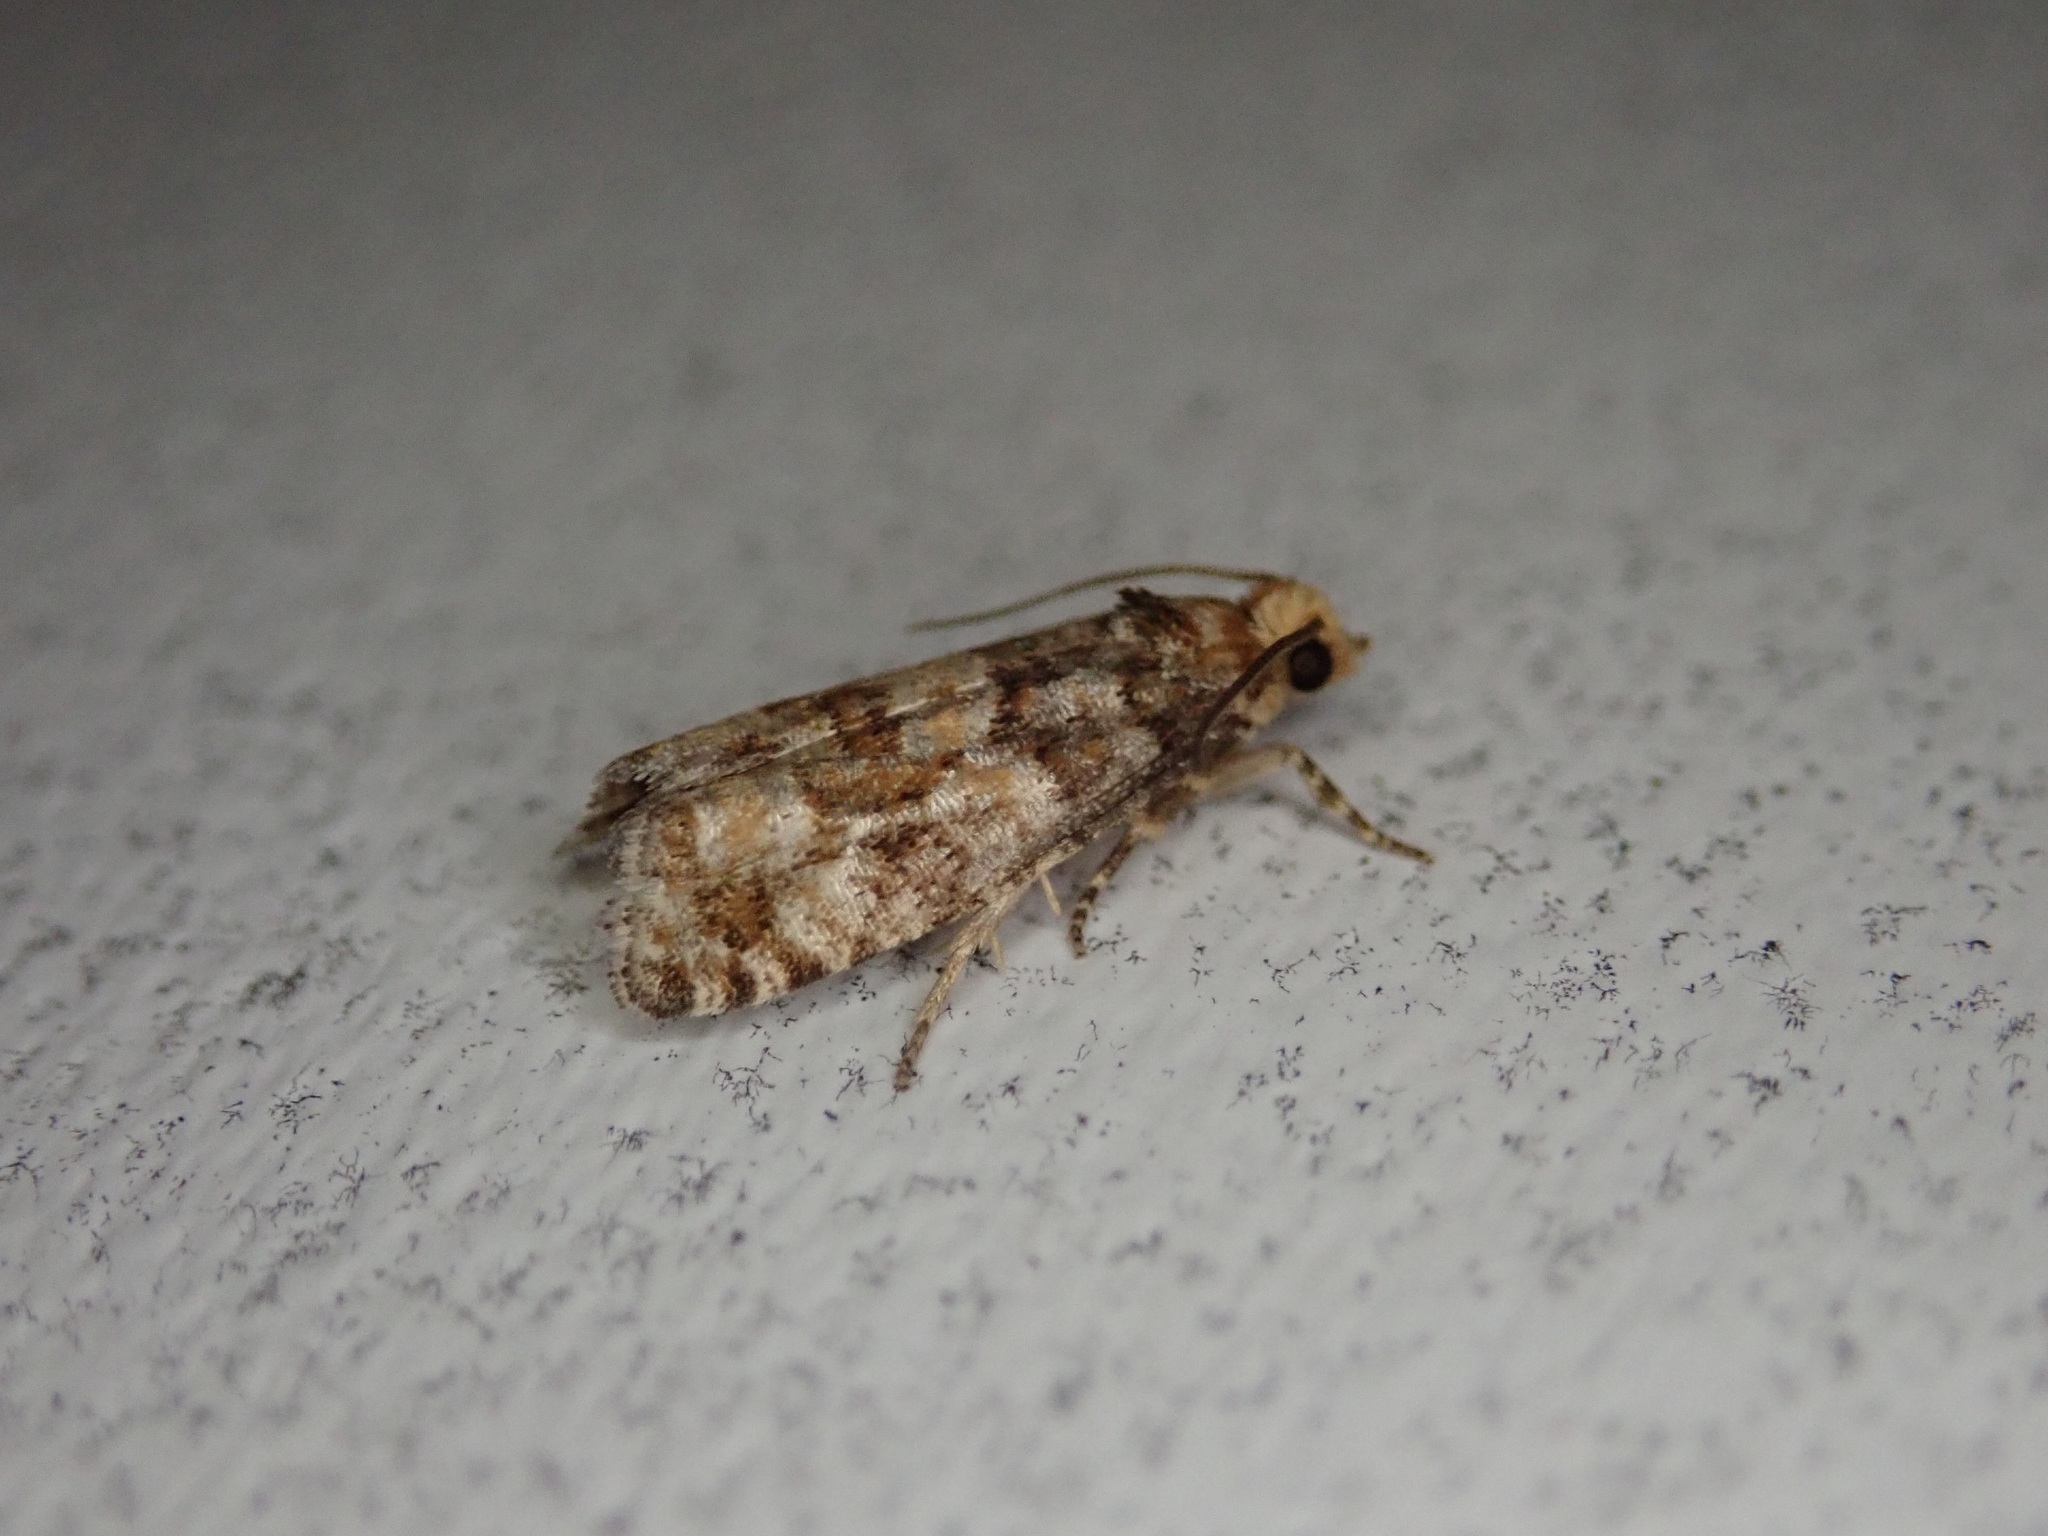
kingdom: Animalia
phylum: Arthropoda
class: Insecta
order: Lepidoptera
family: Tortricidae
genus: Eucopina
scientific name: Eucopina tocullionana
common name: White pinecone borer moth
